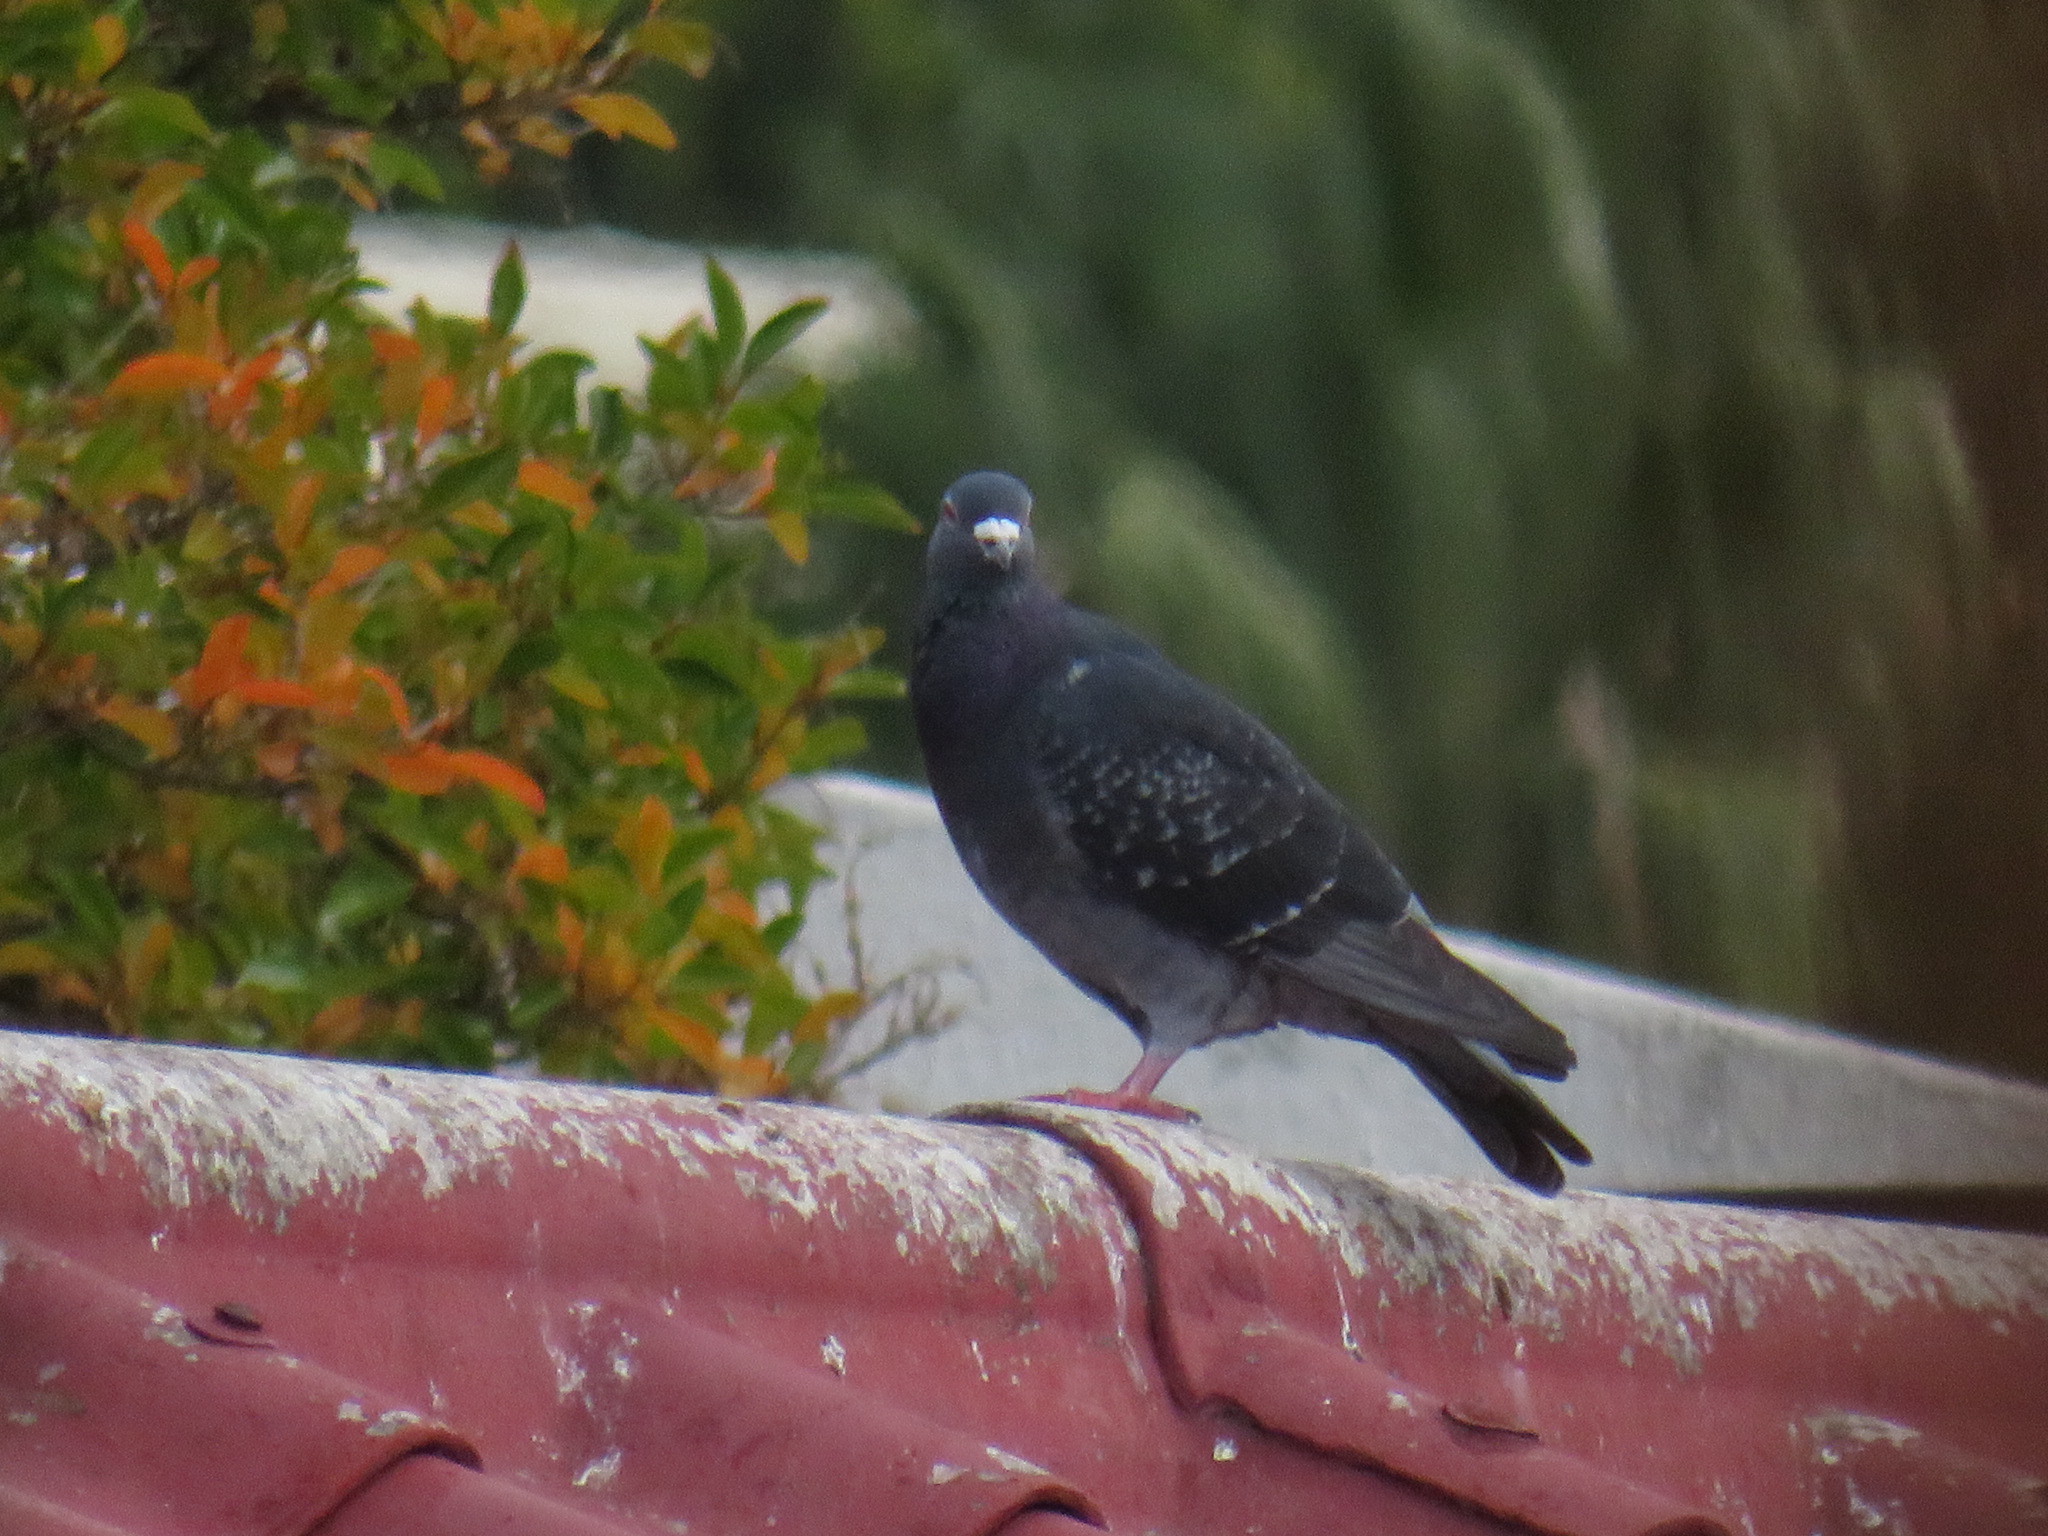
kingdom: Animalia
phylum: Chordata
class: Aves
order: Columbiformes
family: Columbidae
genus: Columba
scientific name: Columba livia
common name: Rock pigeon
